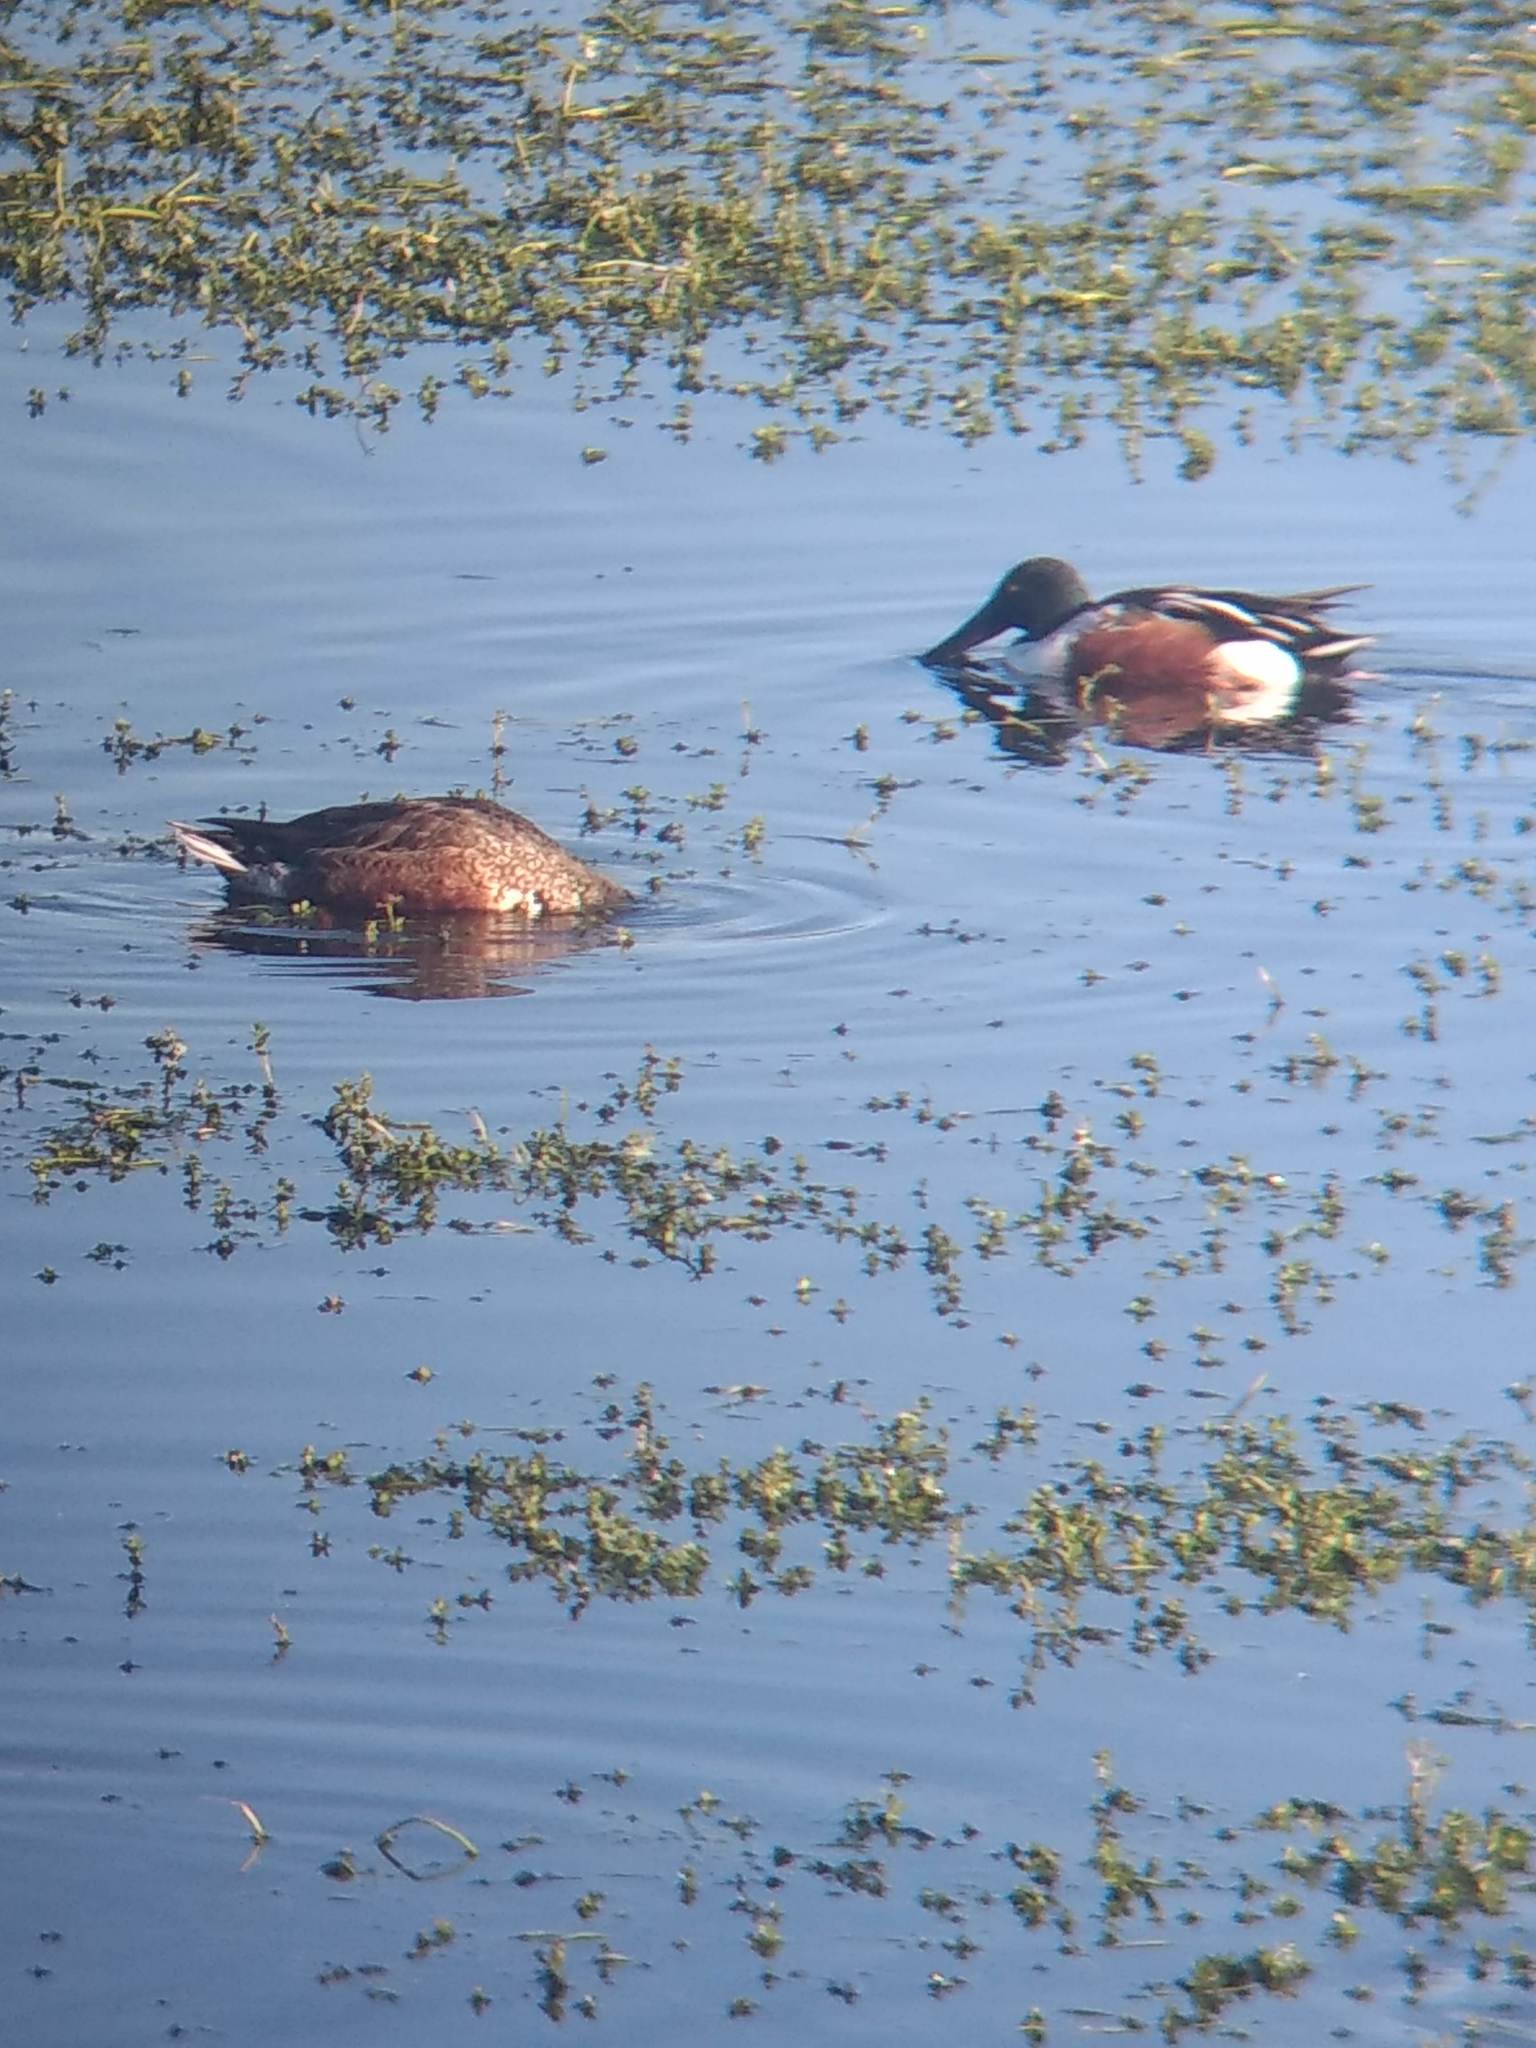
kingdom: Animalia
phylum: Chordata
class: Aves
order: Anseriformes
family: Anatidae
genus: Spatula
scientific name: Spatula clypeata
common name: Northern shoveler
